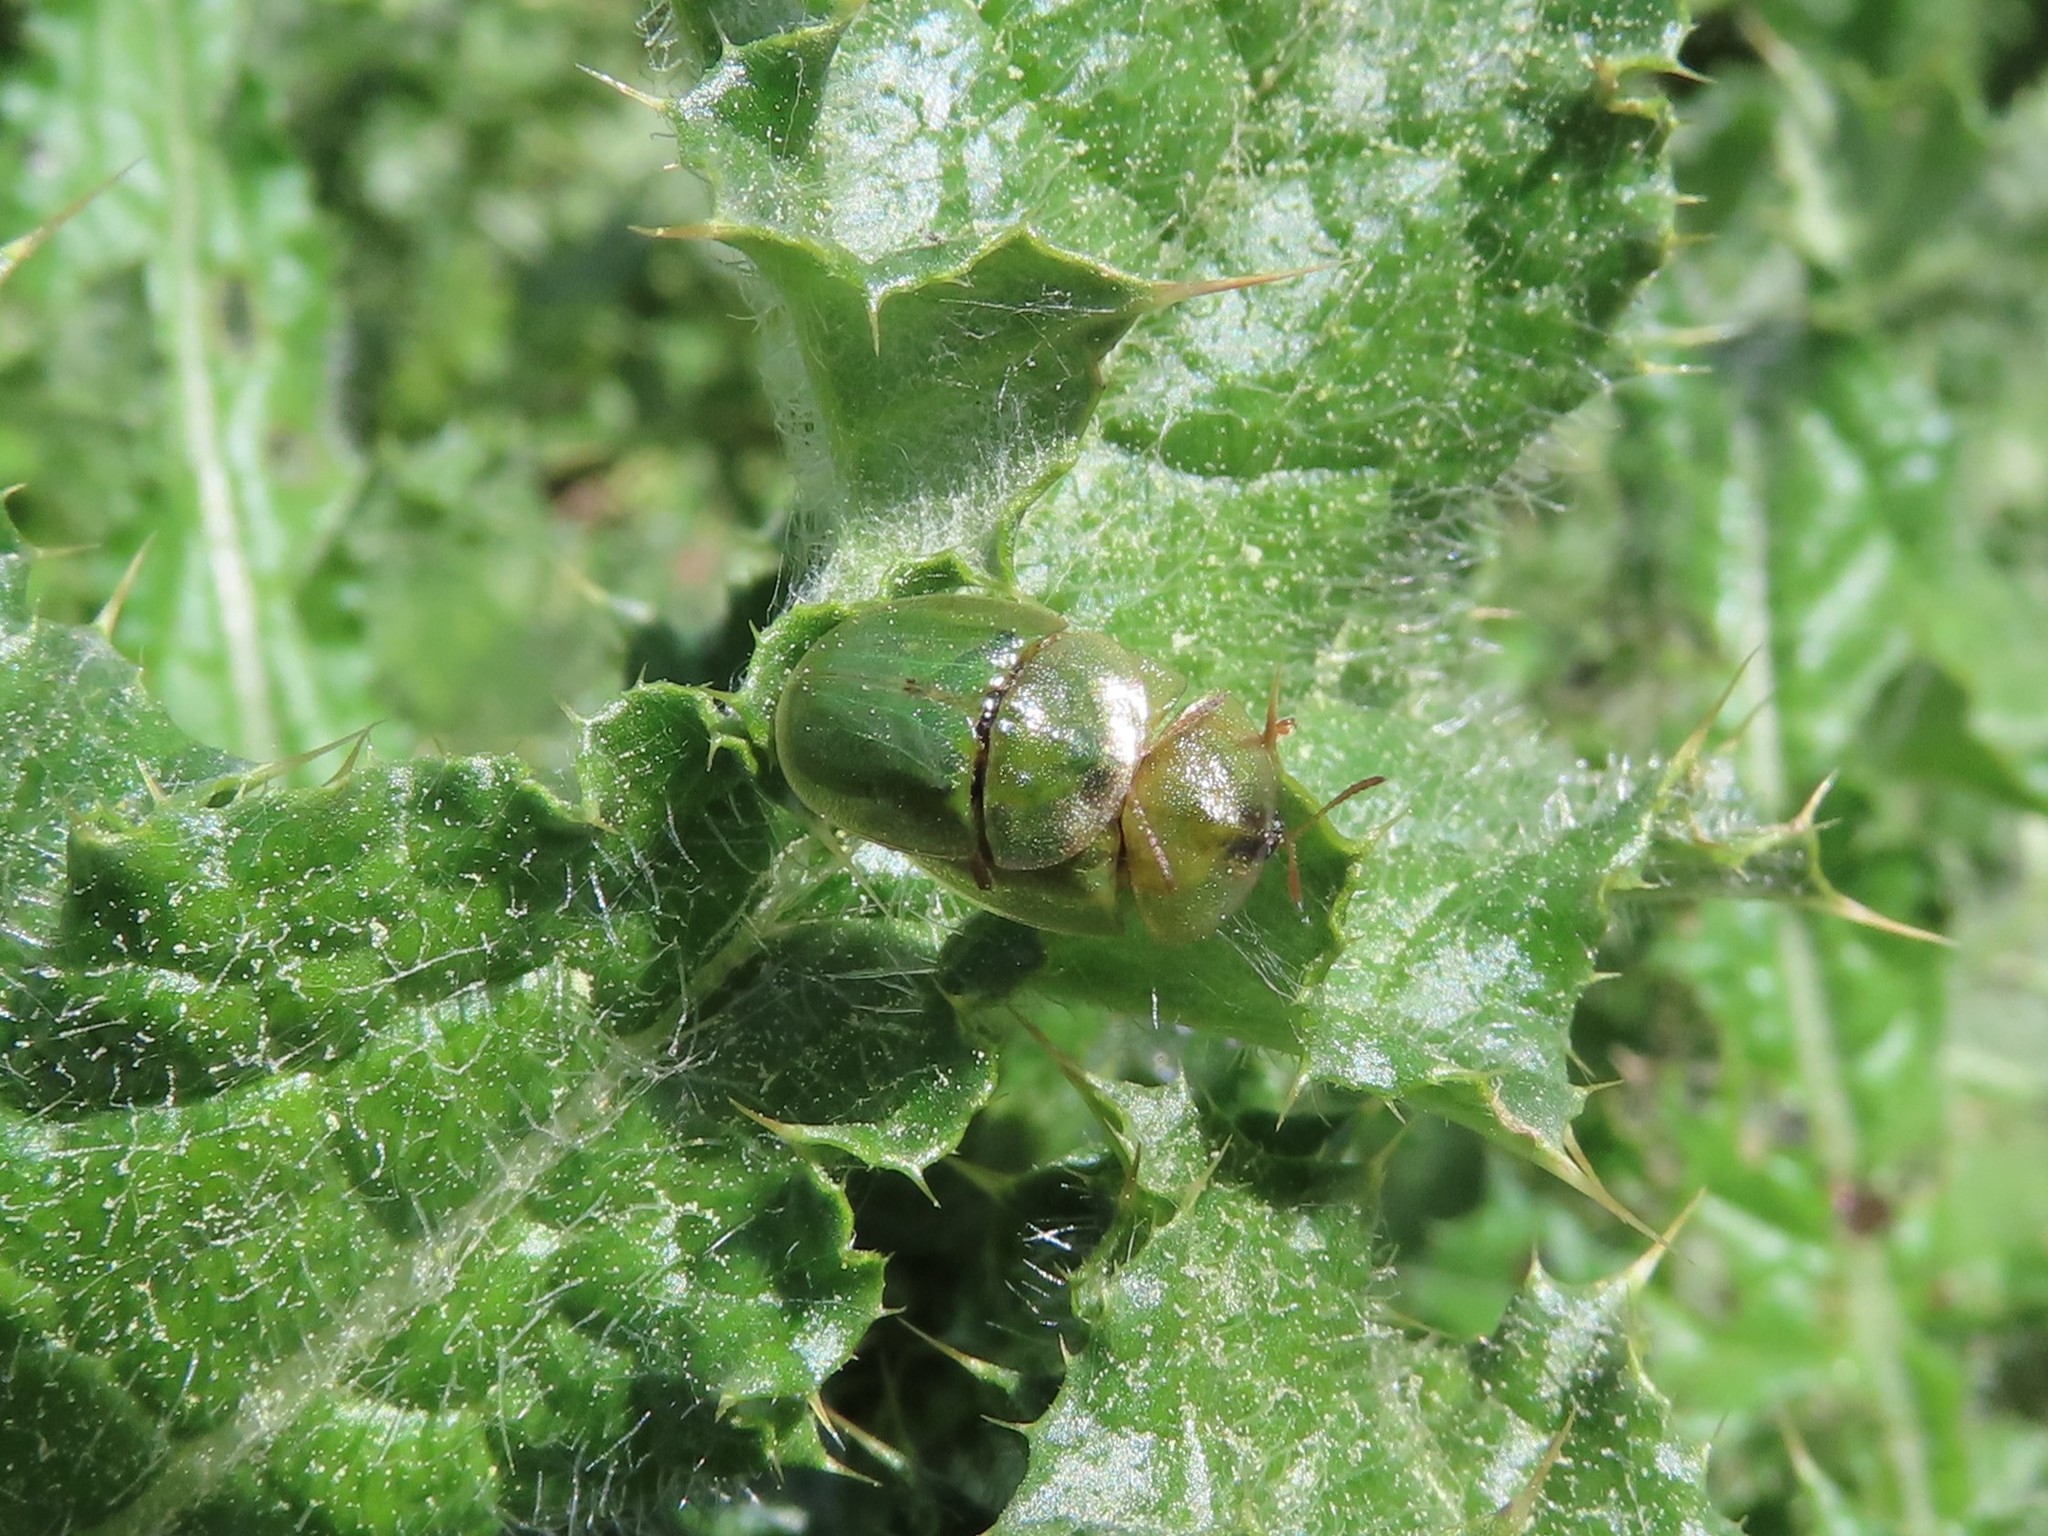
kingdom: Animalia
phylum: Arthropoda
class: Insecta
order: Coleoptera
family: Chrysomelidae
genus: Cassida
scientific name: Cassida deflorata
